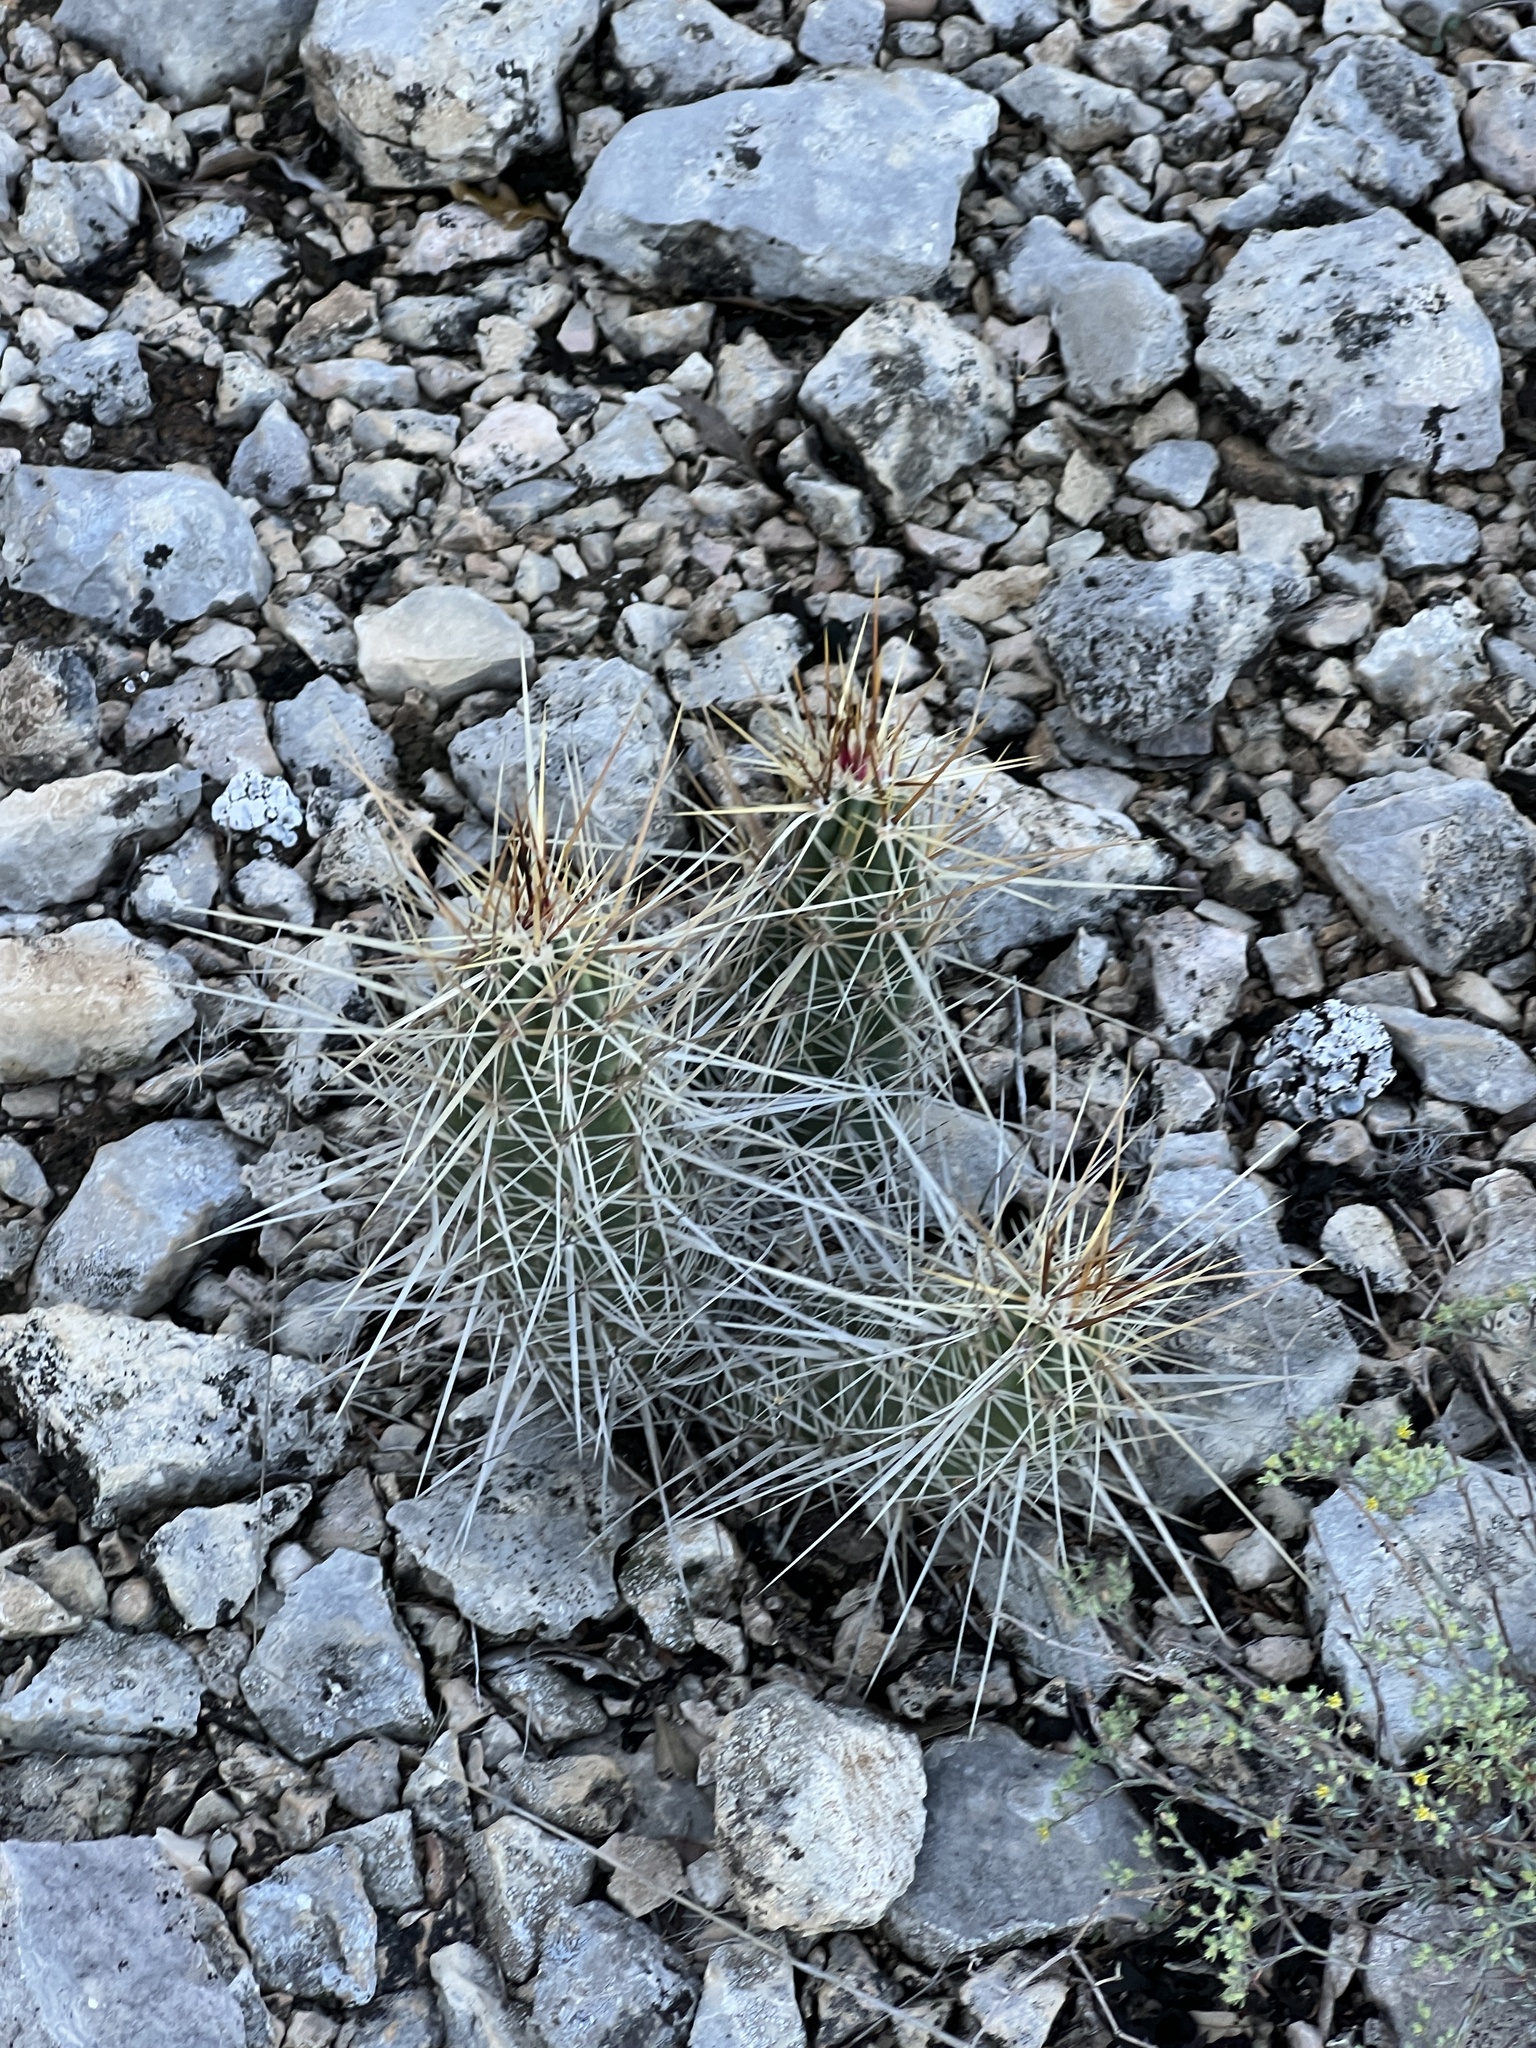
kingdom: Plantae
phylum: Tracheophyta
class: Magnoliopsida
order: Caryophyllales
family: Cactaceae
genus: Echinocereus
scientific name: Echinocereus enneacanthus
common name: Pitaya
